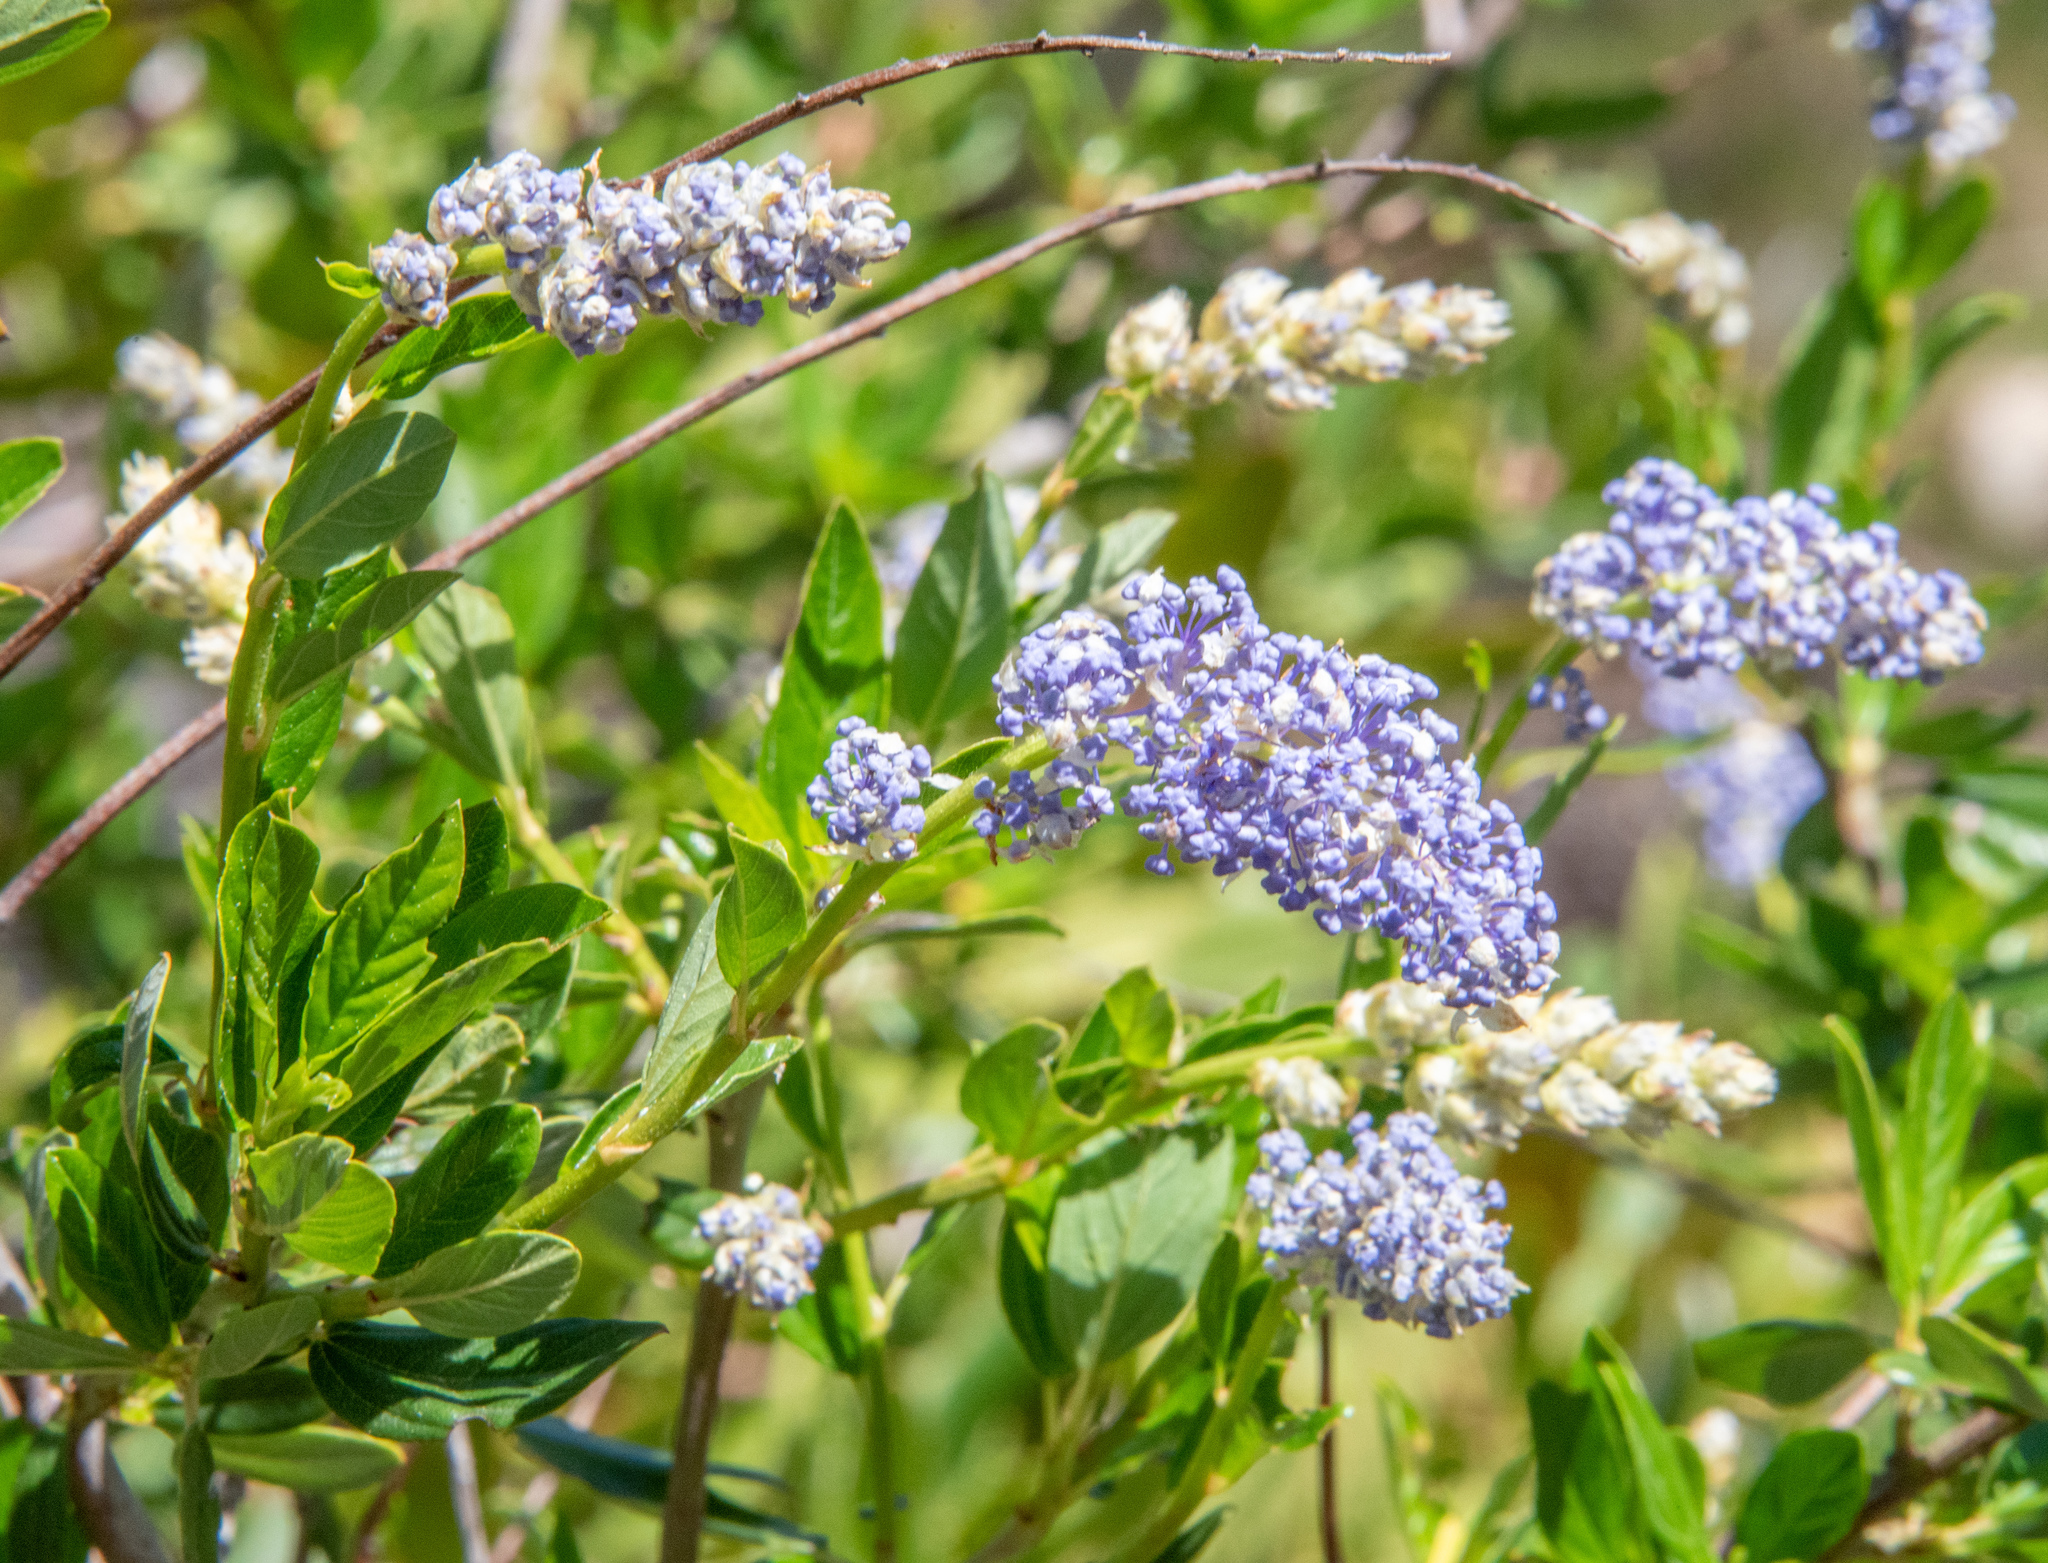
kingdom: Plantae
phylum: Tracheophyta
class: Magnoliopsida
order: Rosales
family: Rhamnaceae
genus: Ceanothus
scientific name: Ceanothus parryi
